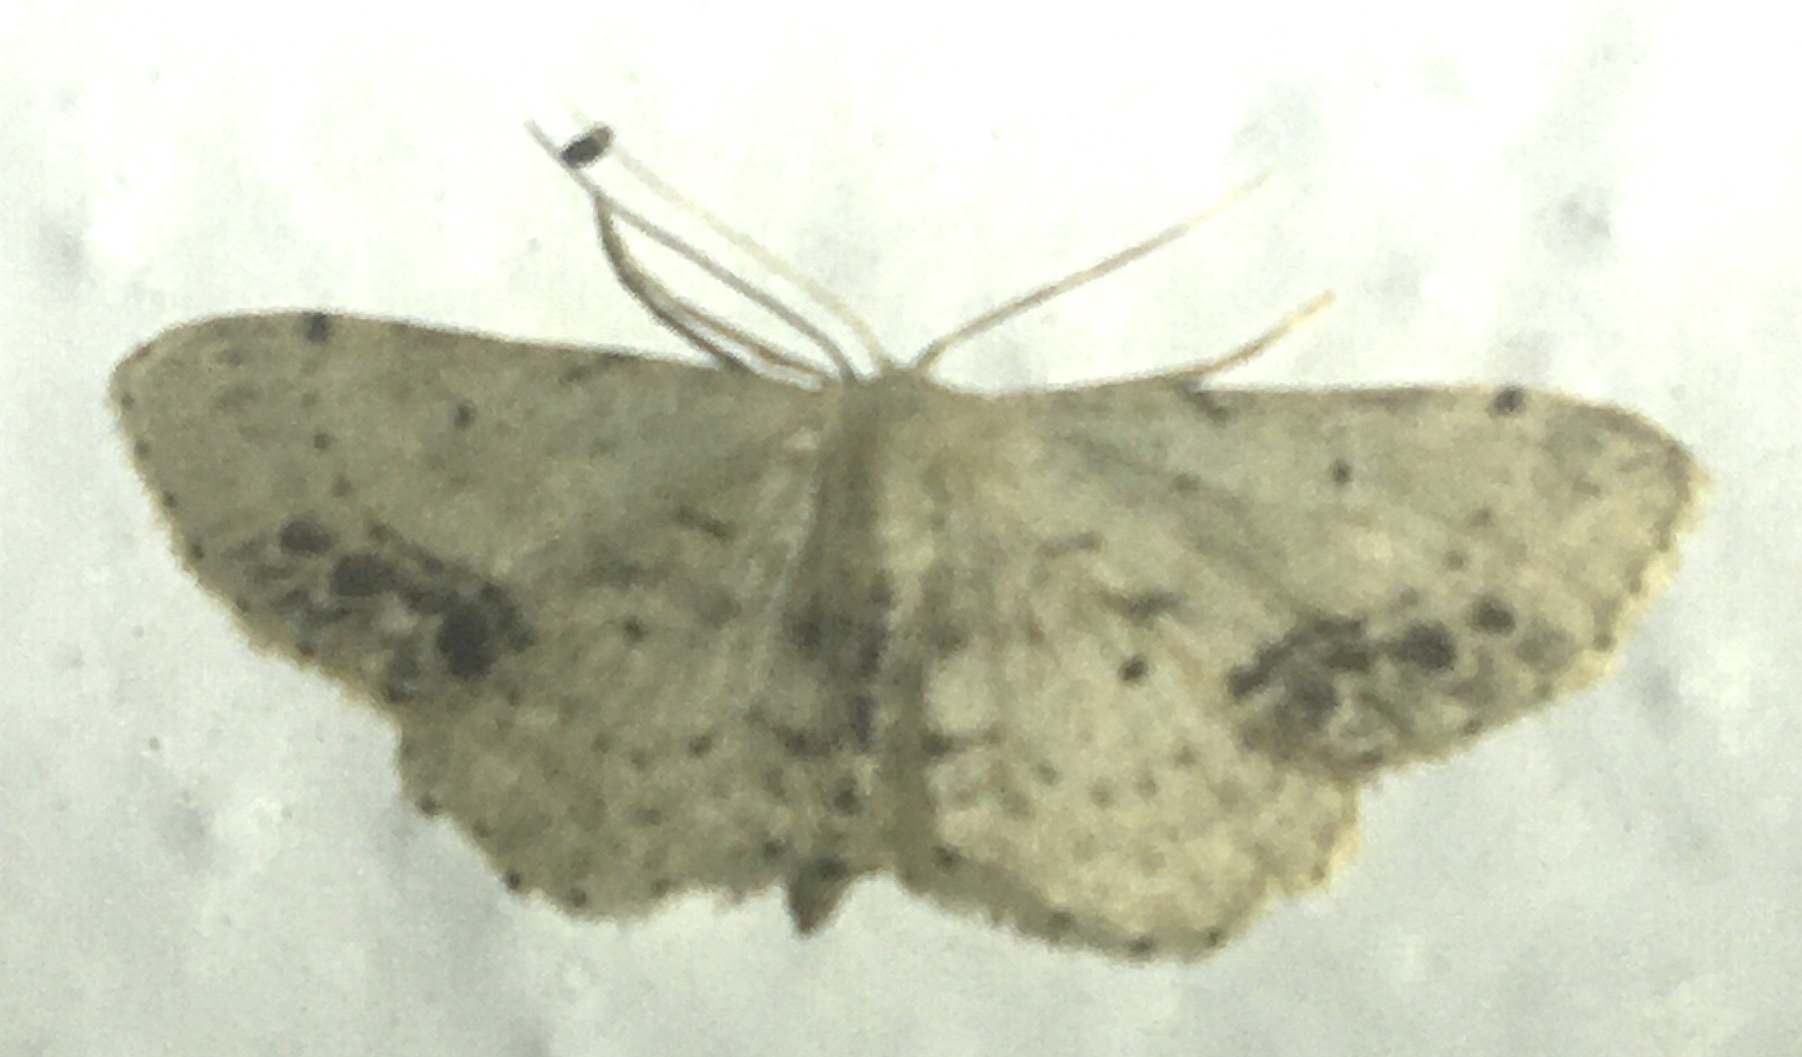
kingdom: Animalia
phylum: Arthropoda
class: Insecta
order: Lepidoptera
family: Geometridae
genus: Idaea
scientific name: Idaea dimidiata
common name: Single-dotted wave
